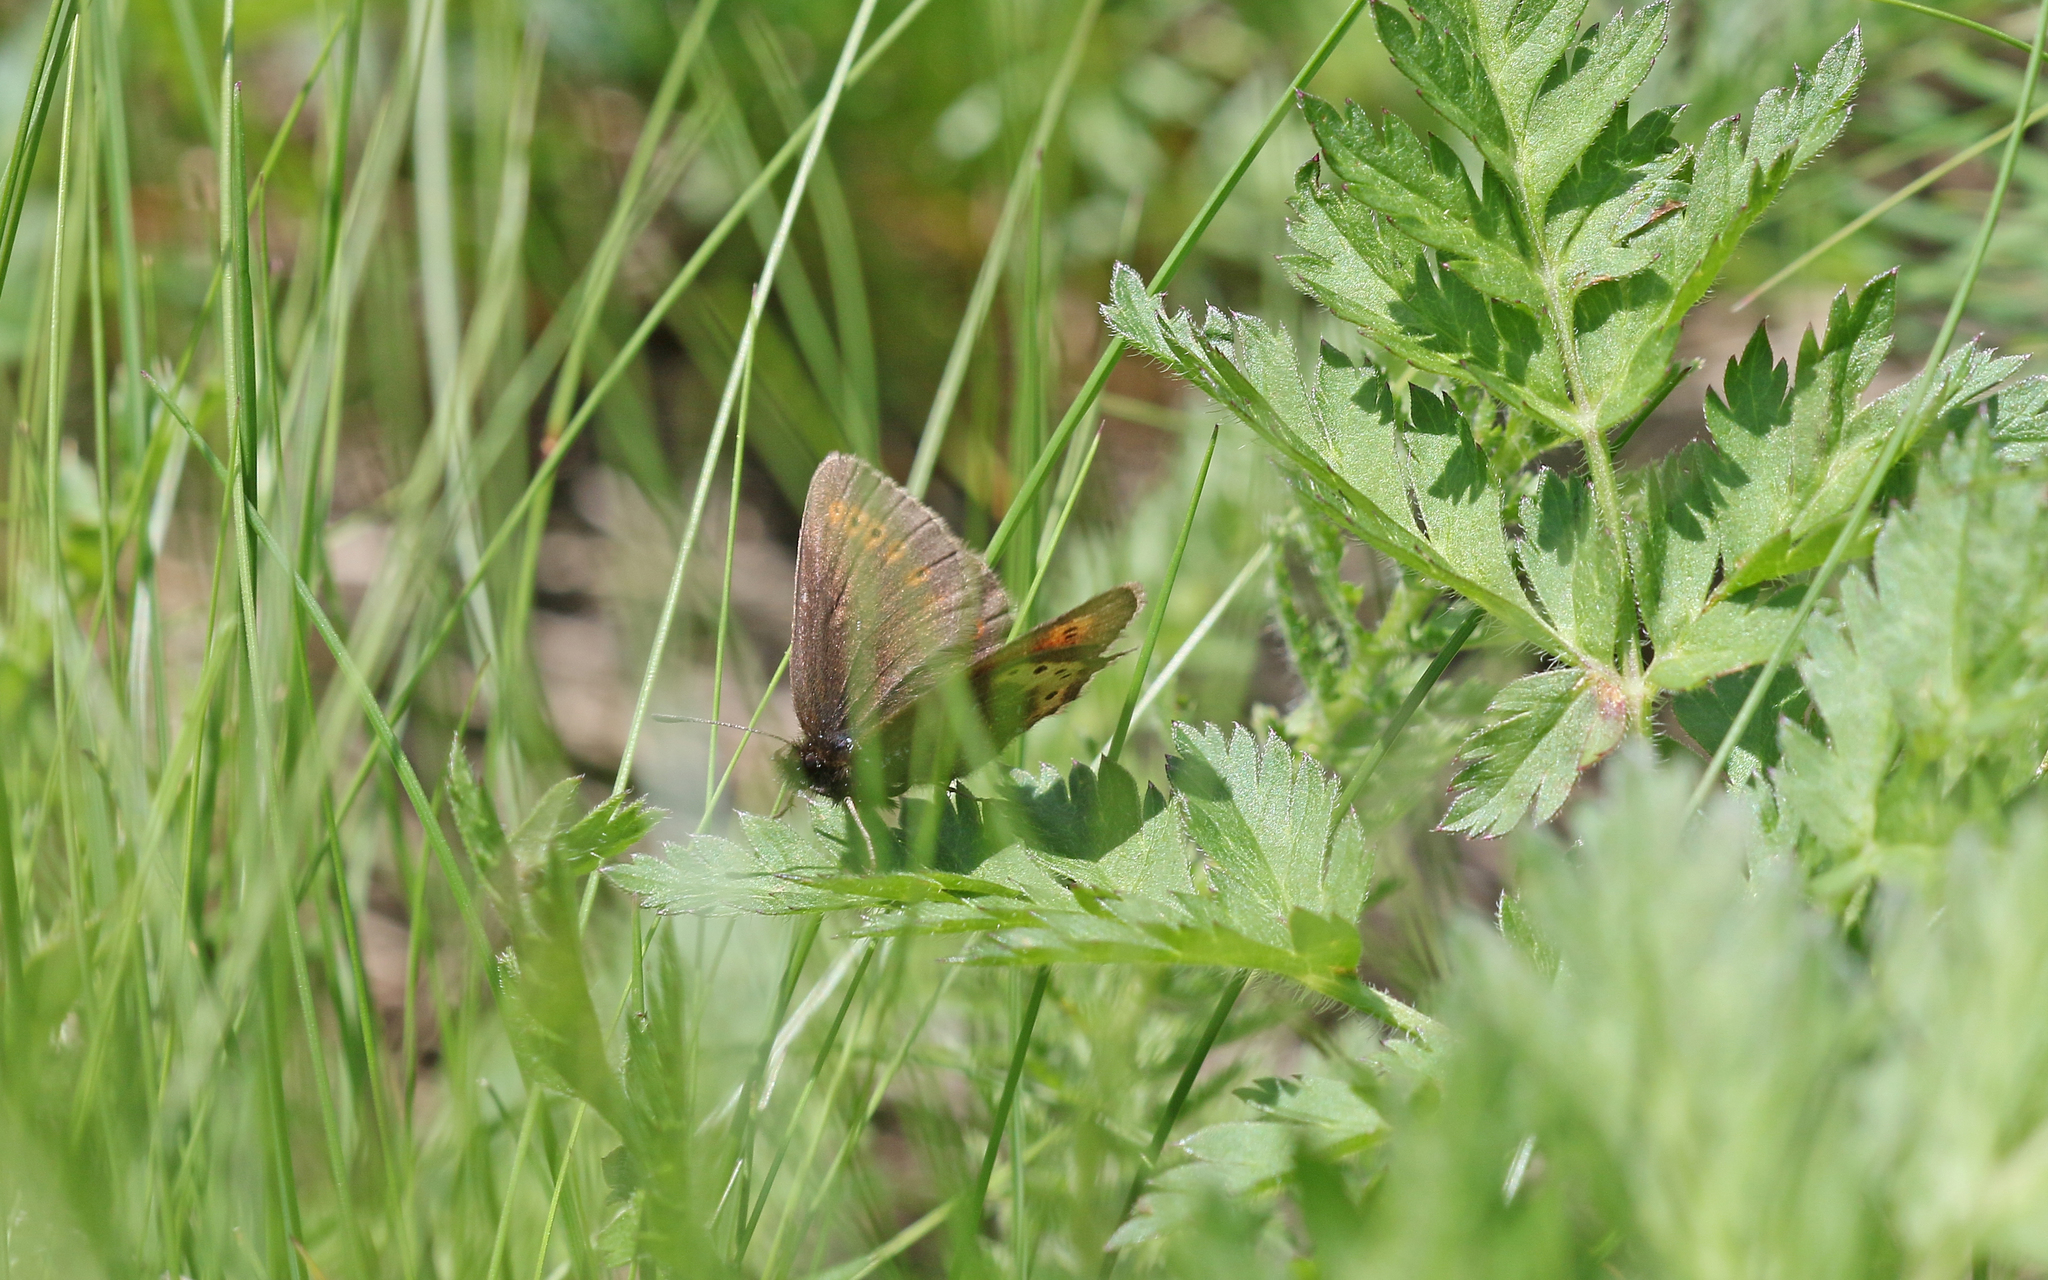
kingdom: Animalia
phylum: Arthropoda
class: Insecta
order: Lepidoptera
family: Nymphalidae
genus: Erebia
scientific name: Erebia flavofasciata
